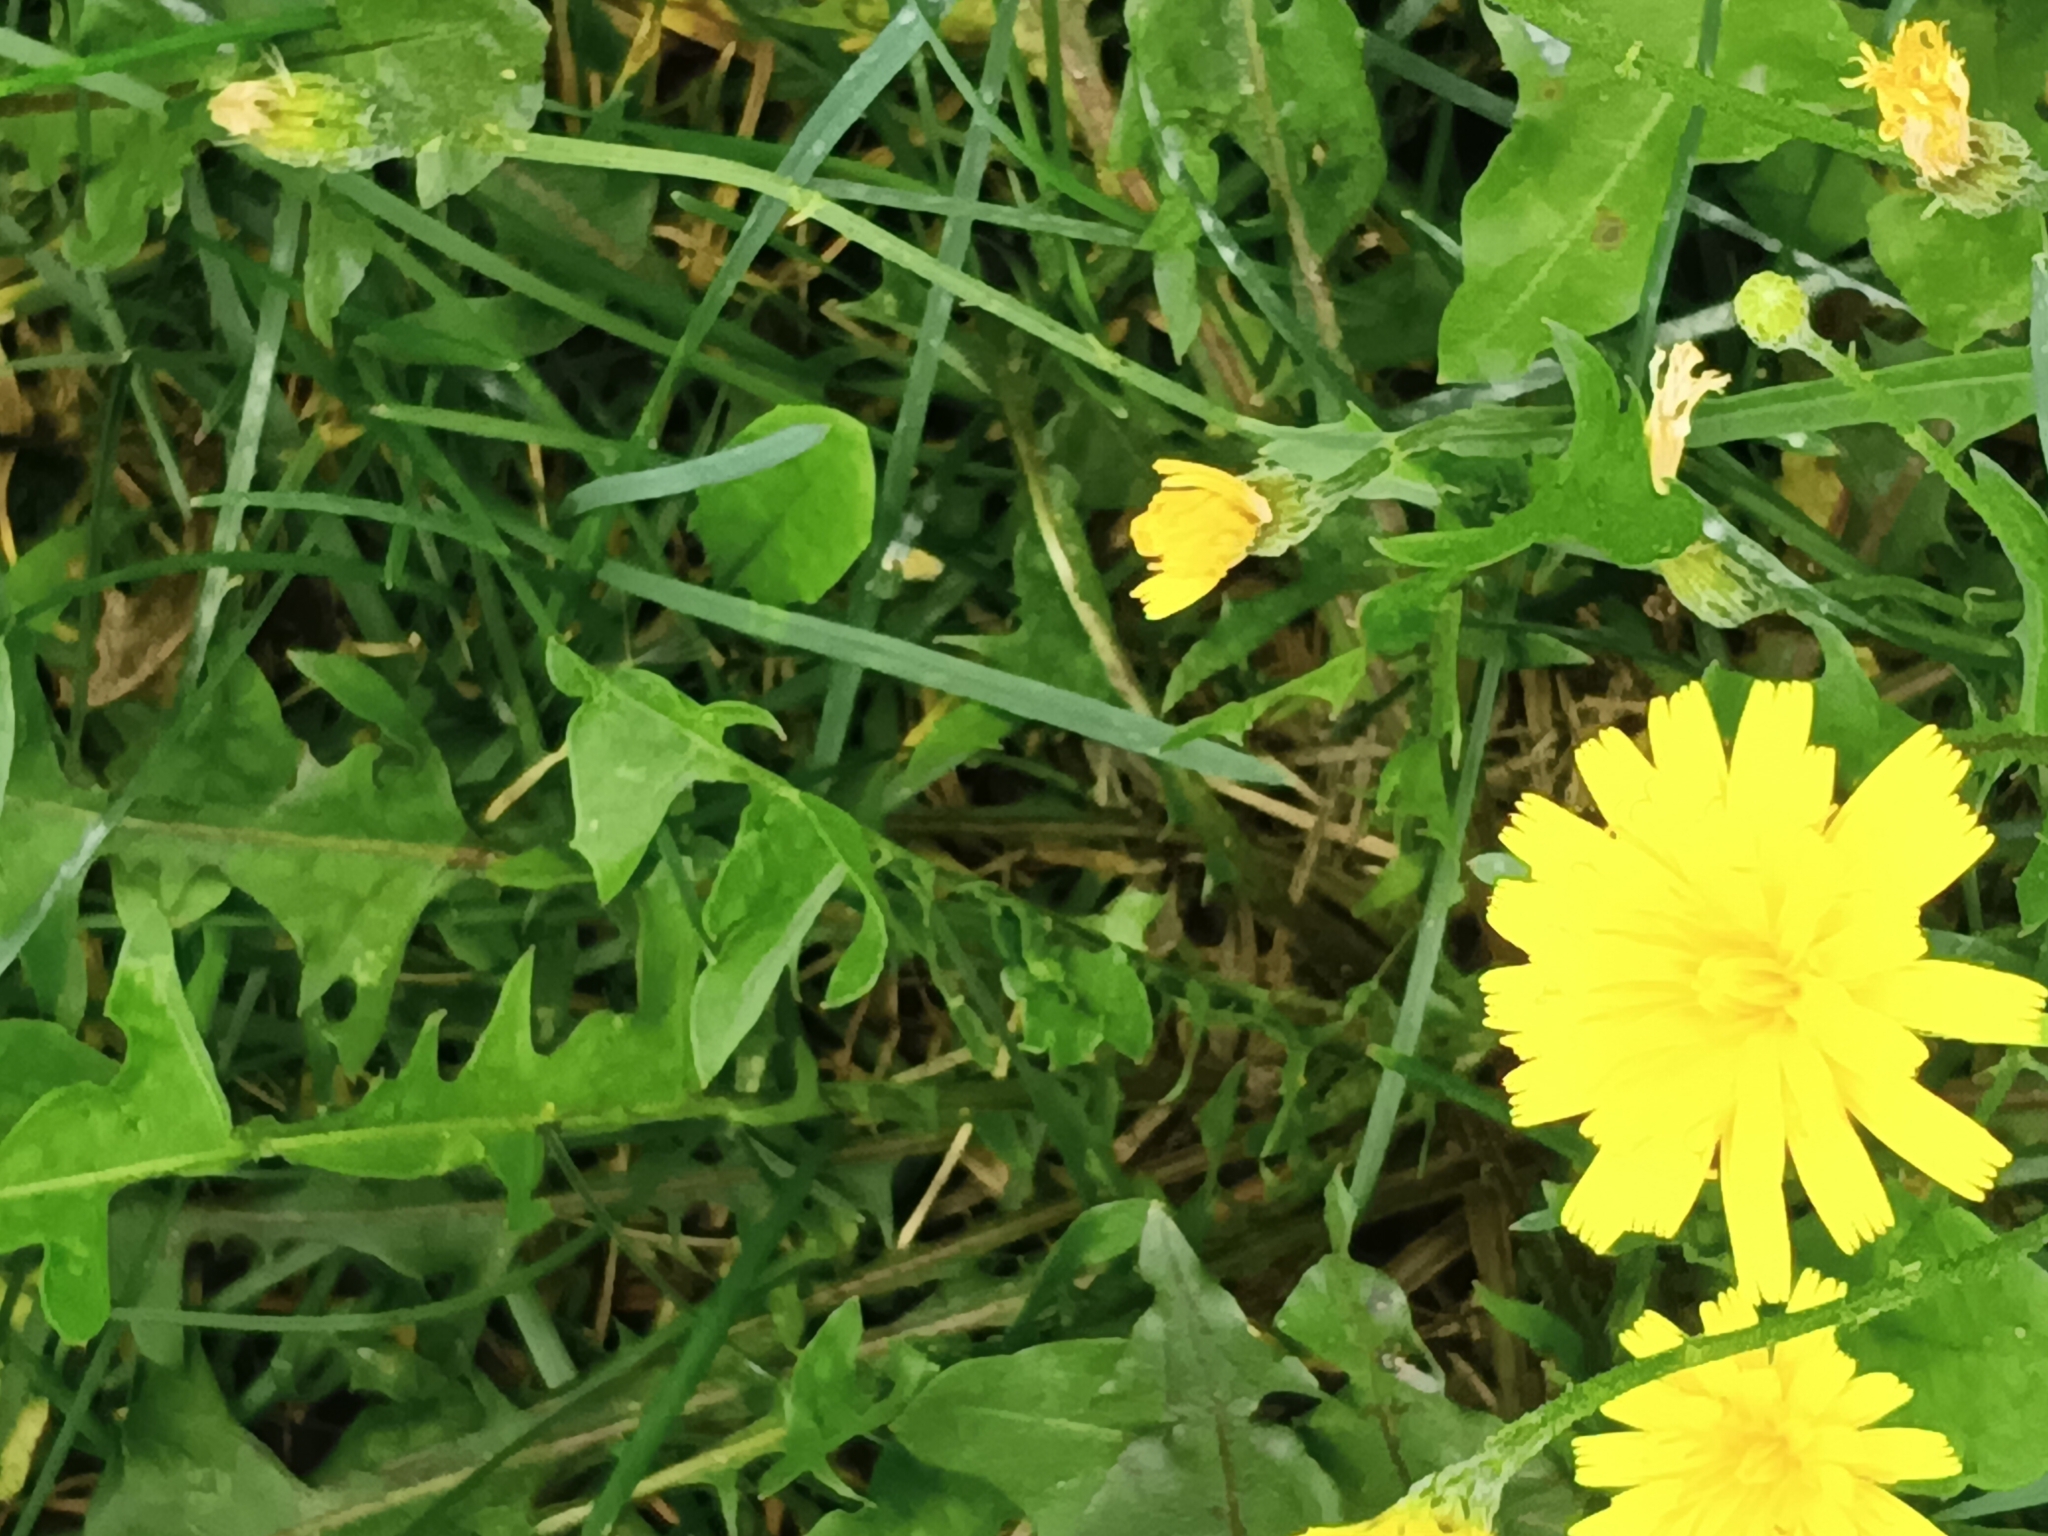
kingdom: Plantae
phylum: Tracheophyta
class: Magnoliopsida
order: Asterales
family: Asteraceae
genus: Scorzoneroides
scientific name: Scorzoneroides autumnalis
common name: Autumn hawkbit
